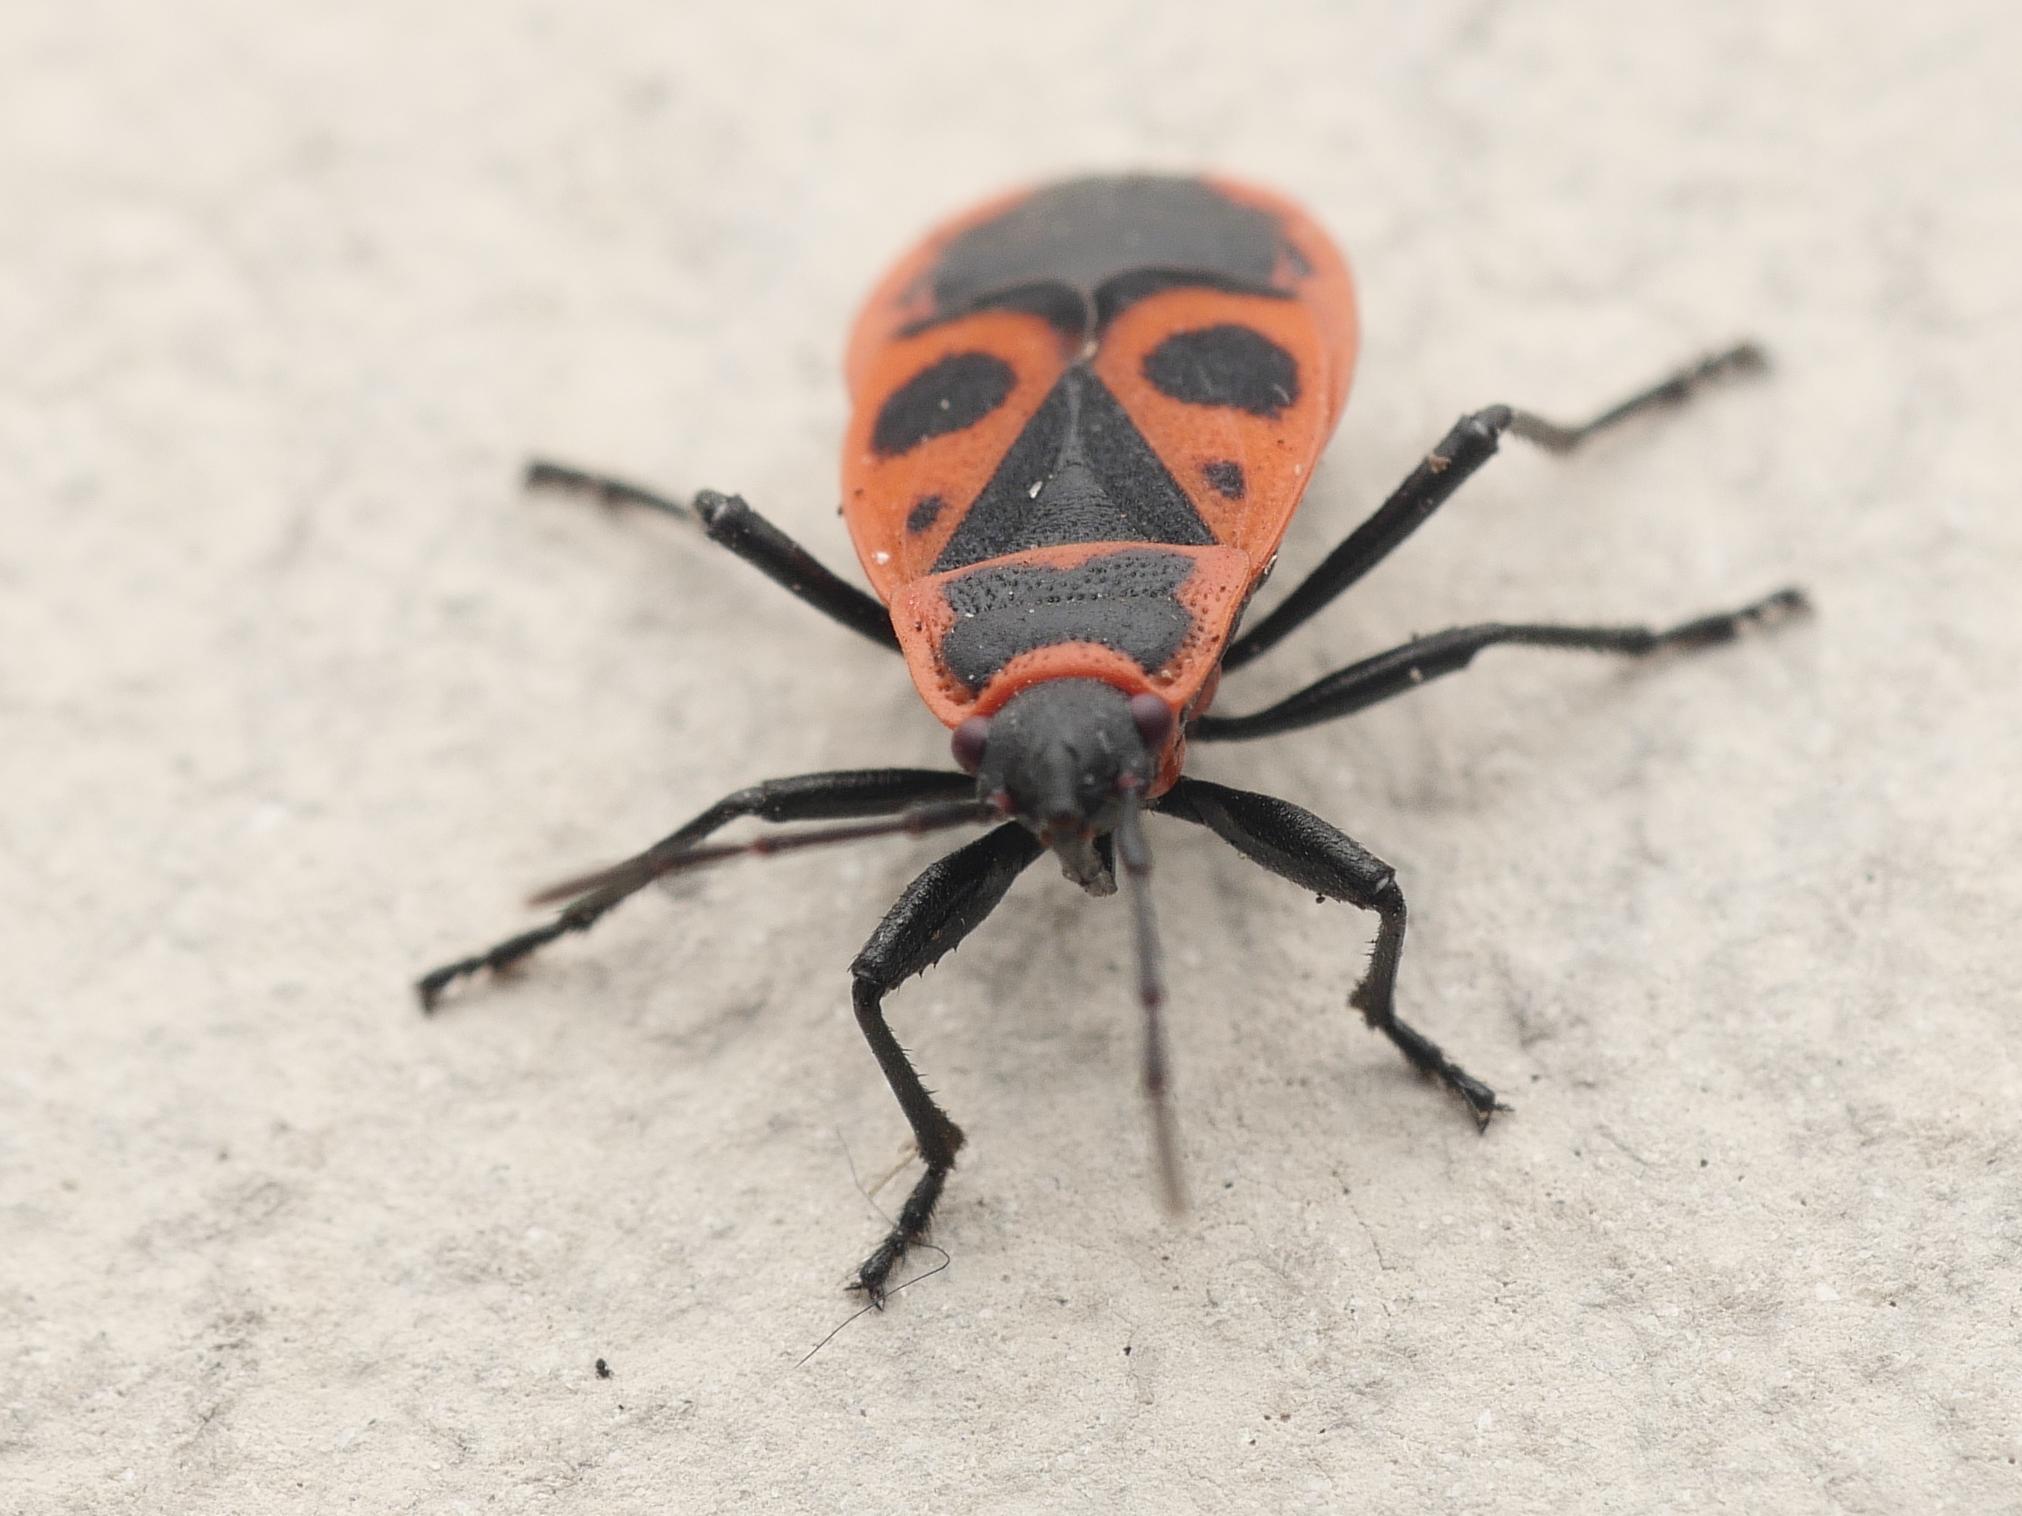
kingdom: Animalia
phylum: Arthropoda
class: Insecta
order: Hemiptera
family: Pyrrhocoridae
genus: Pyrrhocoris
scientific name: Pyrrhocoris apterus
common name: Firebug
